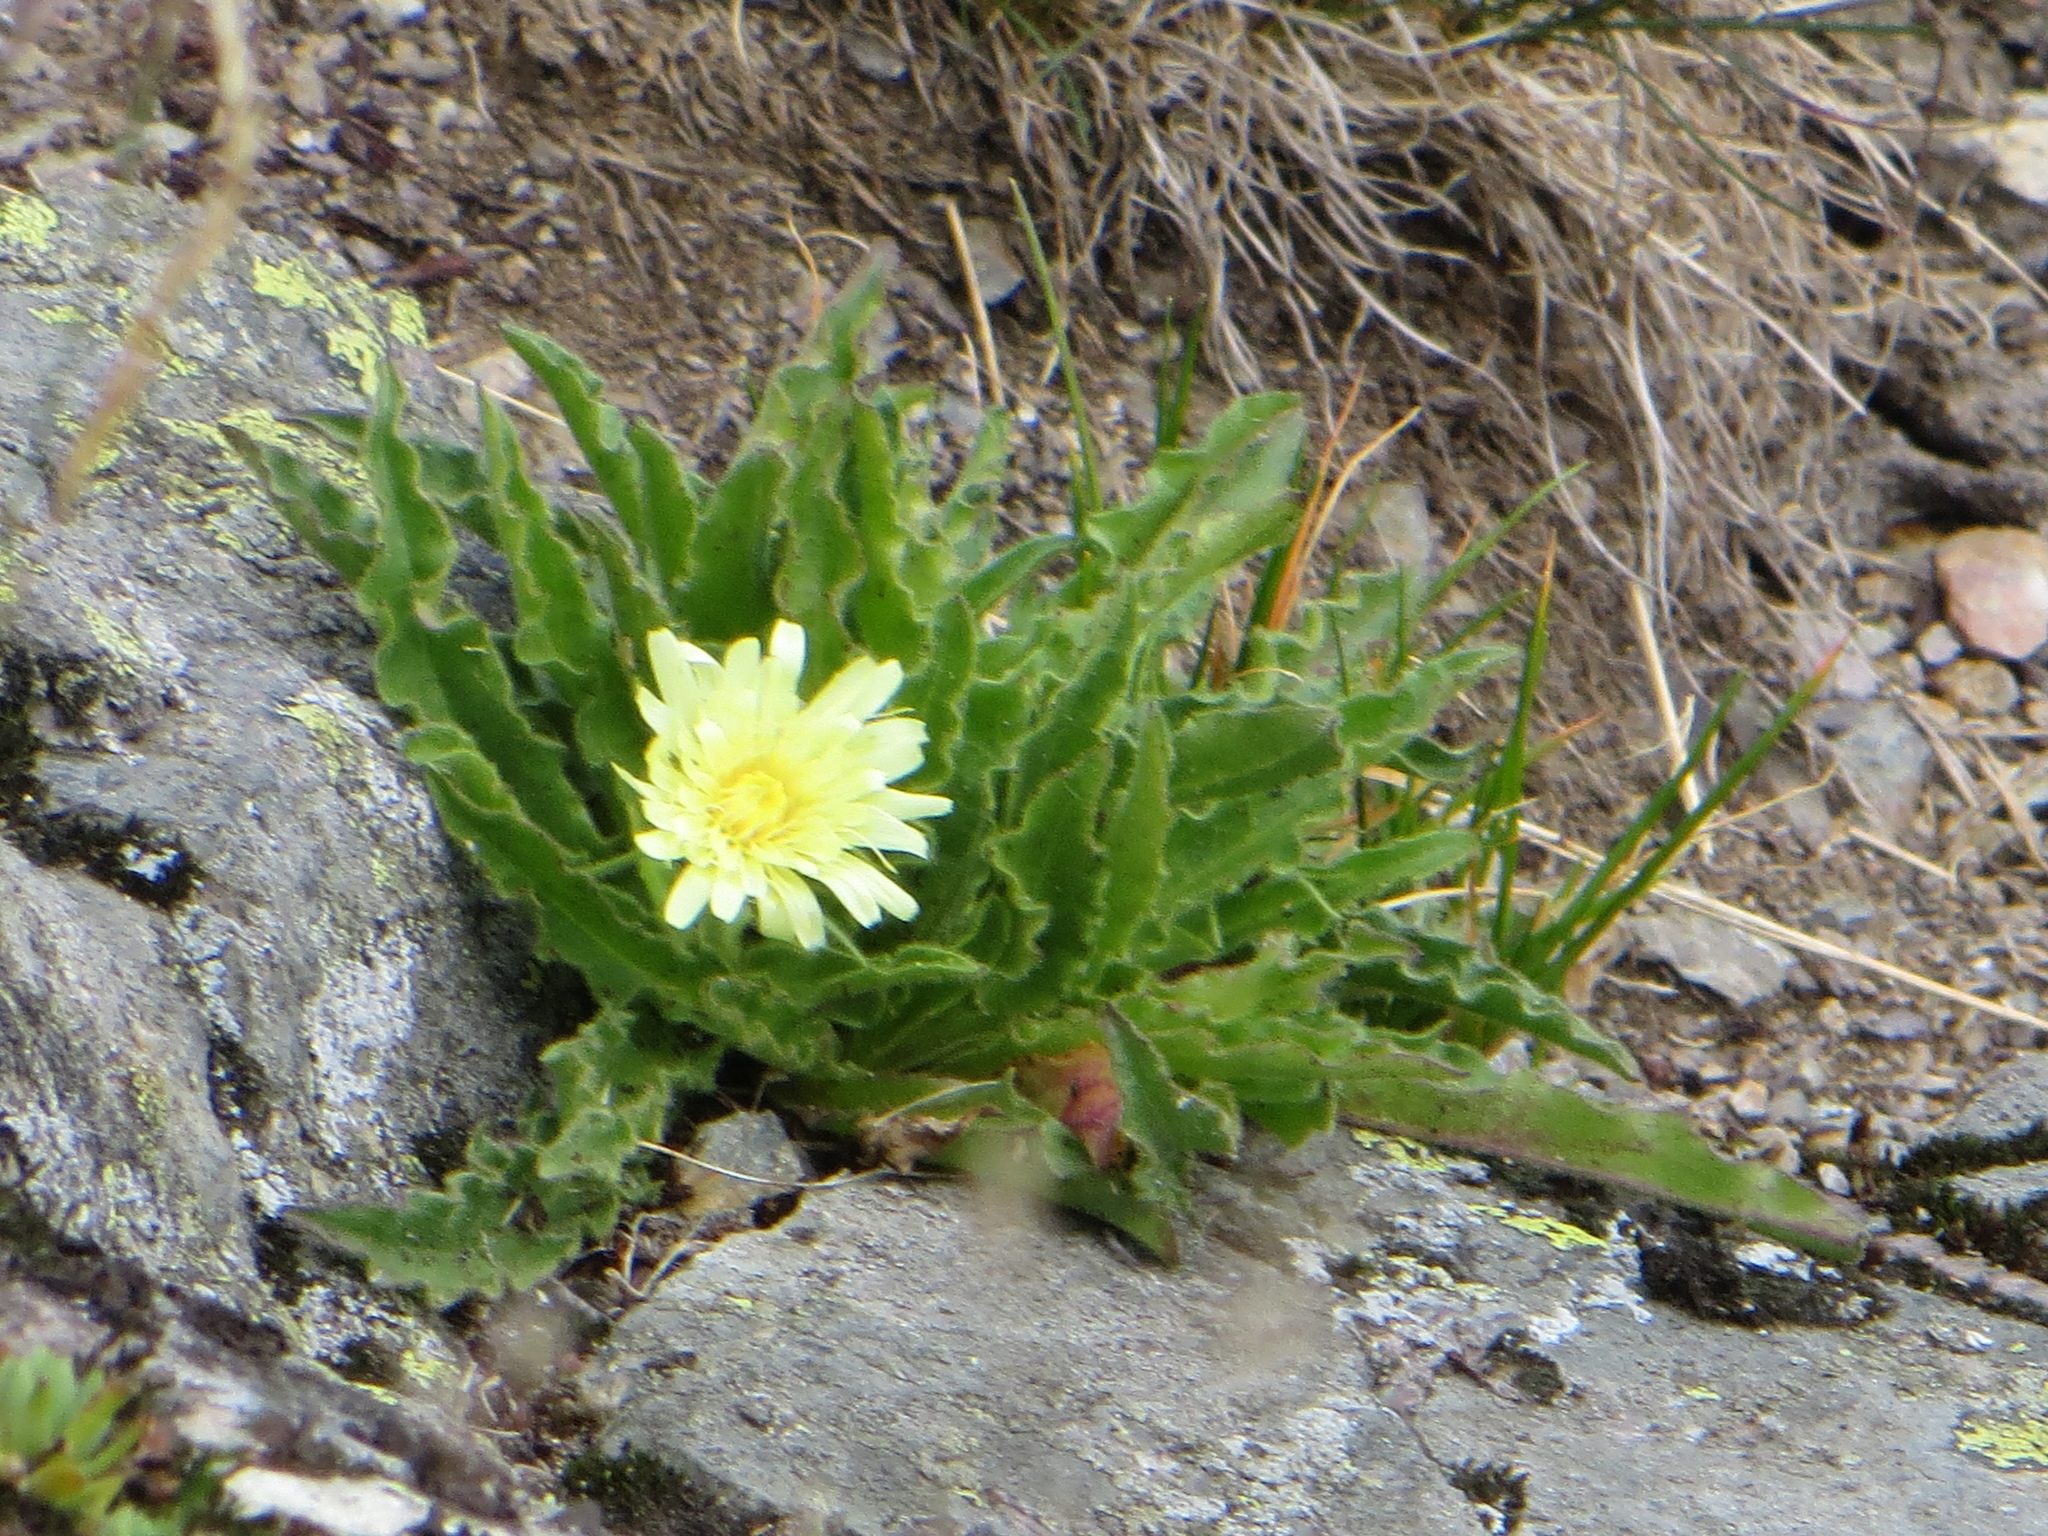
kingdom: Plantae
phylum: Tracheophyta
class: Magnoliopsida
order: Asterales
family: Asteraceae
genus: Schlagintweitia
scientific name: Schlagintweitia intybacea
